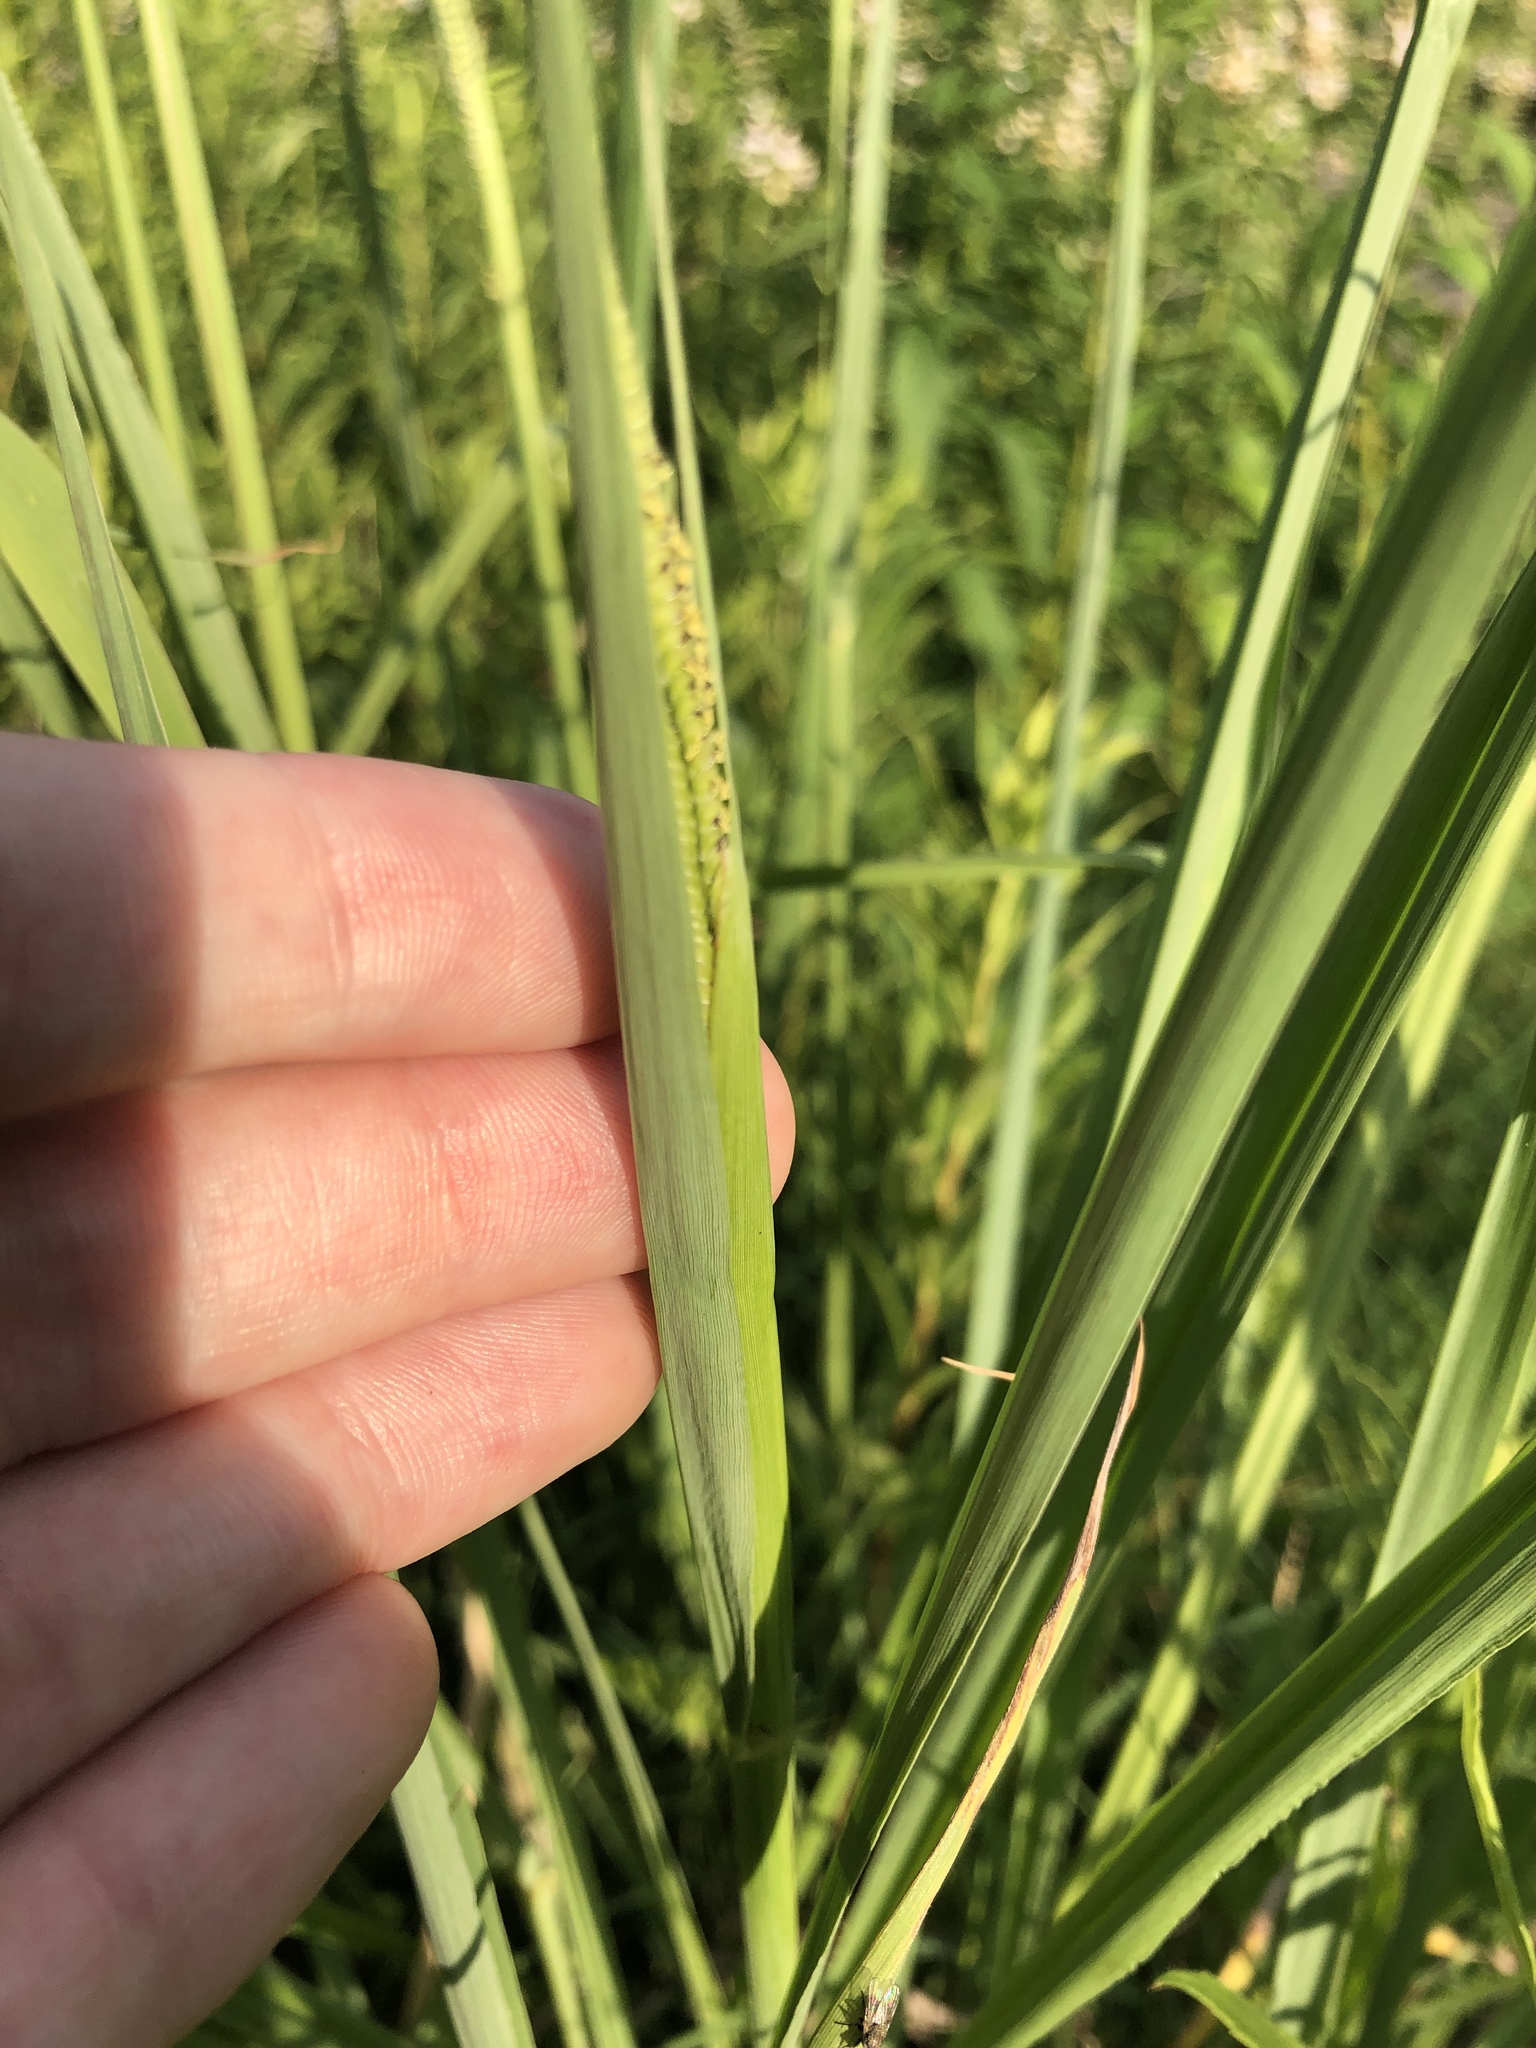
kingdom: Plantae
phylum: Tracheophyta
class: Liliopsida
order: Poales
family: Poaceae
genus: Paspalum
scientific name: Paspalum urvillei
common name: Vasey's grass
